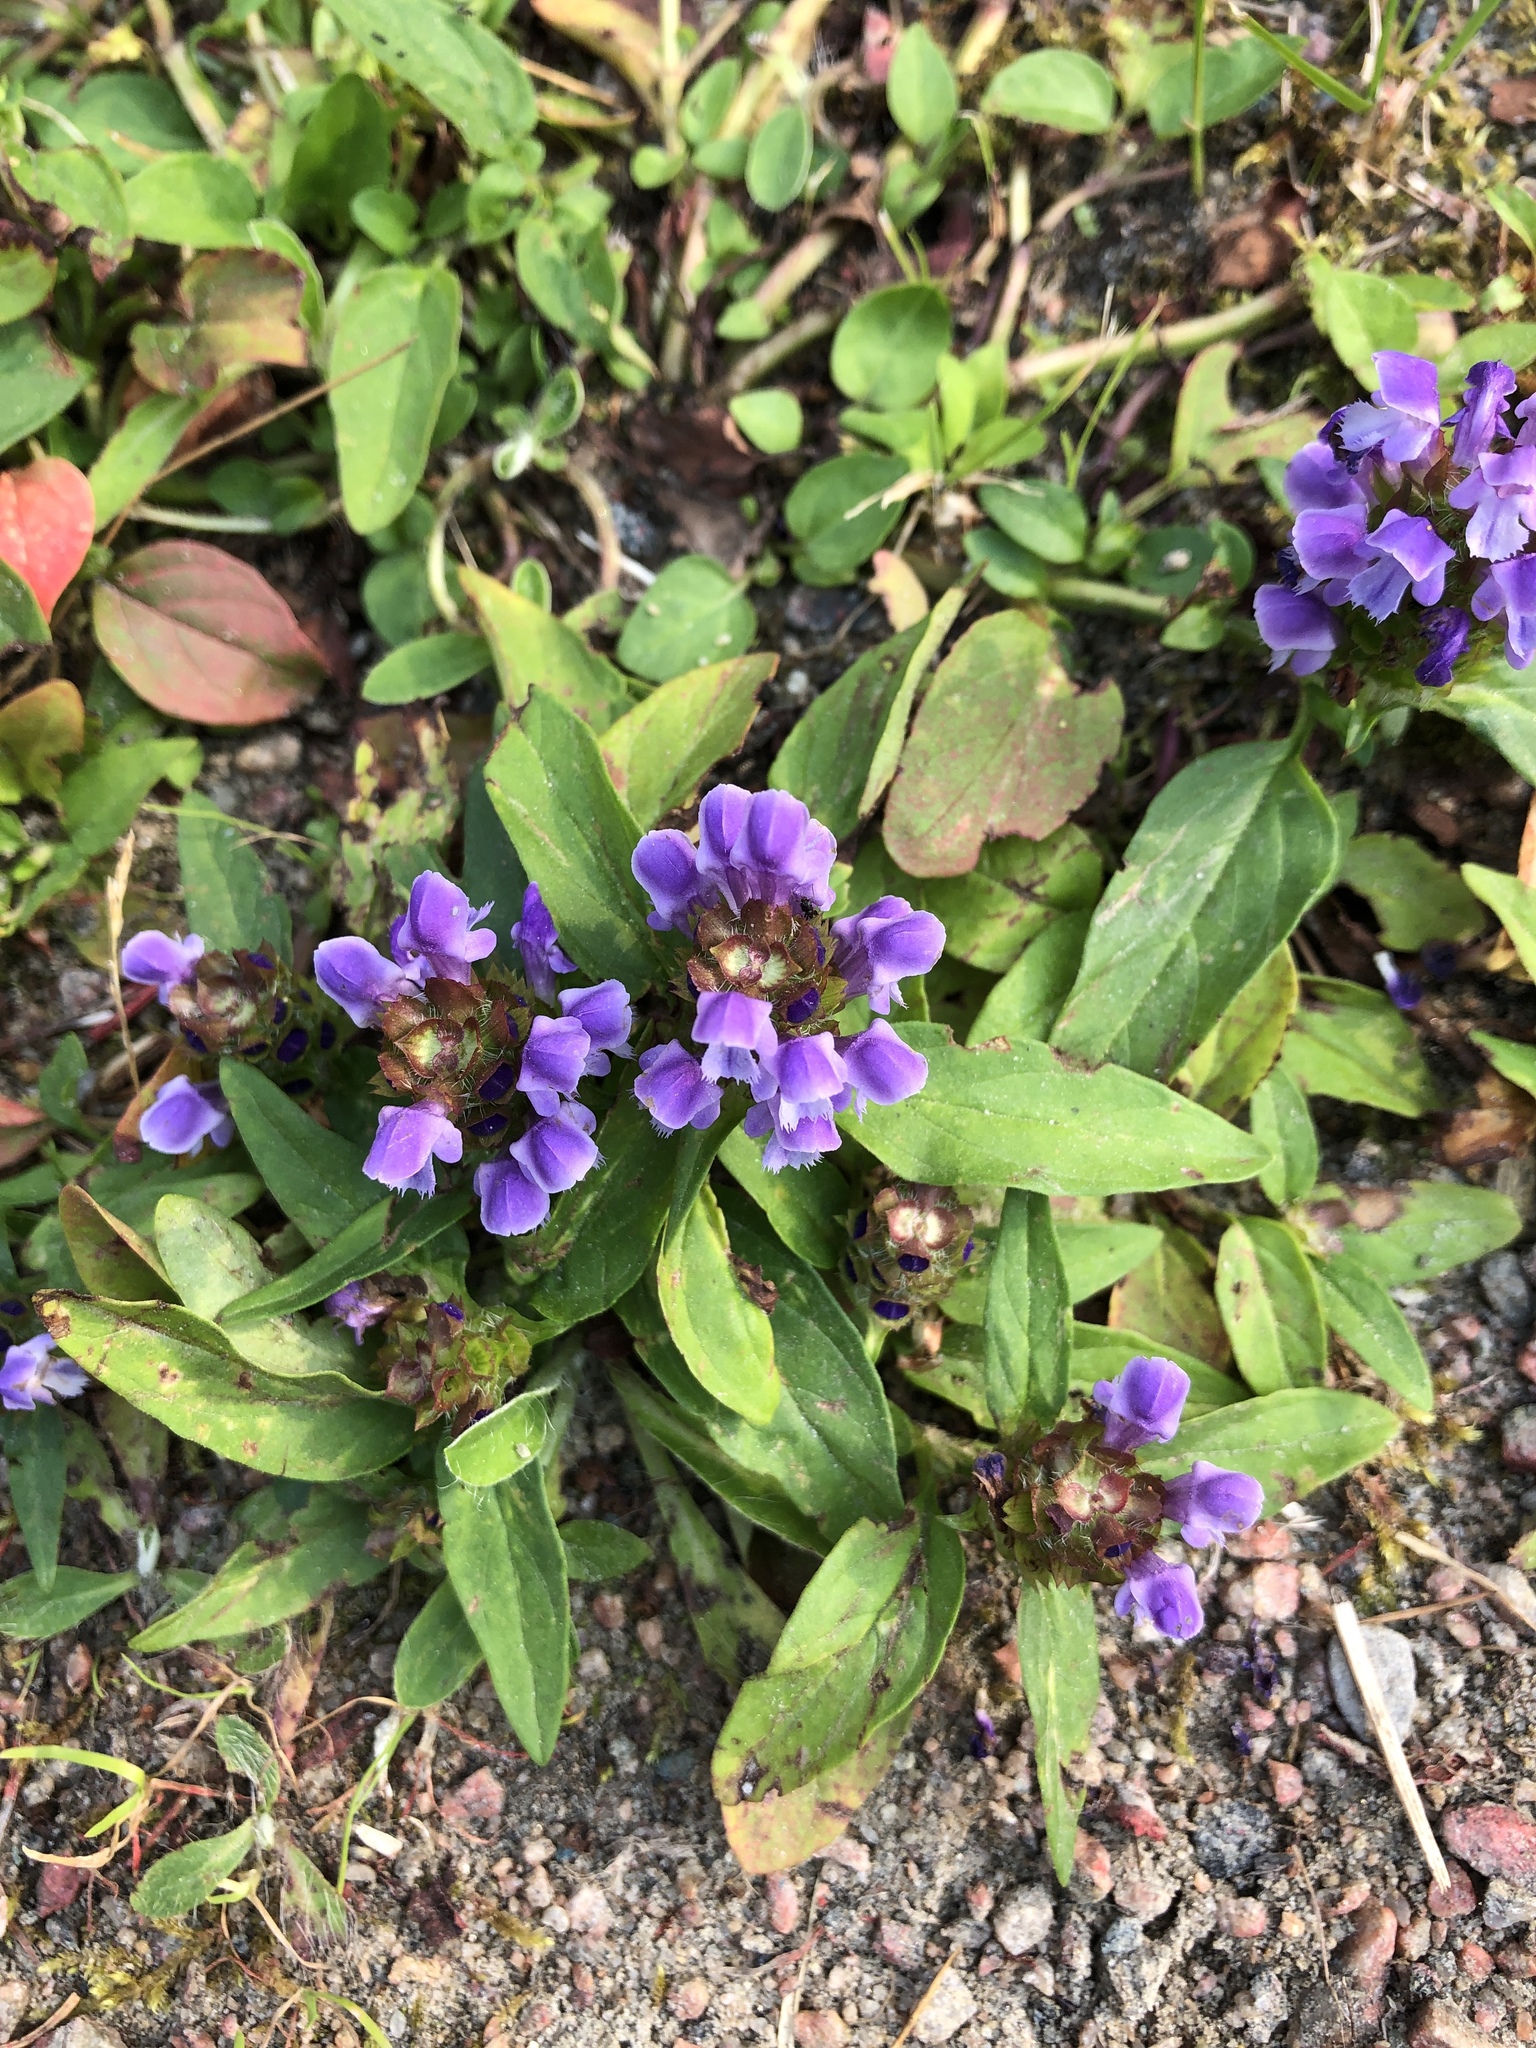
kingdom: Plantae
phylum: Tracheophyta
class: Magnoliopsida
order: Lamiales
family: Lamiaceae
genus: Prunella
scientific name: Prunella vulgaris
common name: Heal-all
